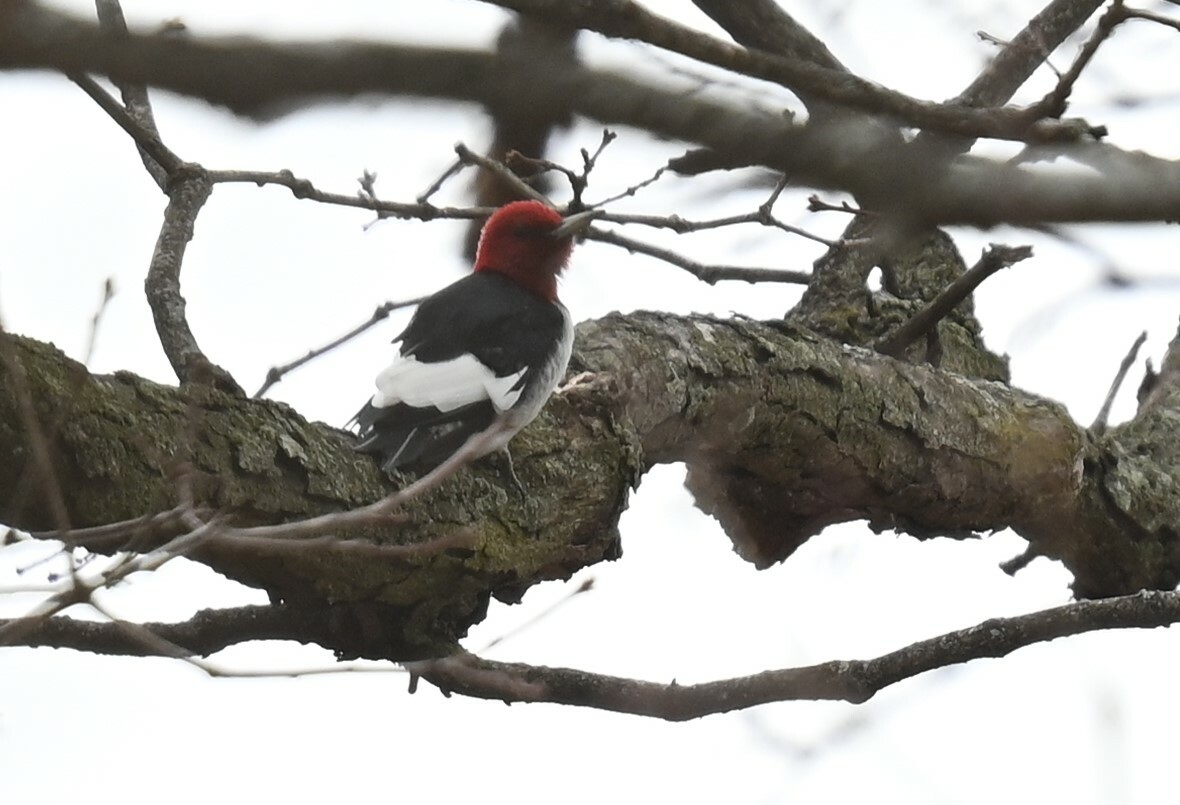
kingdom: Animalia
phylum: Chordata
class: Aves
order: Piciformes
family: Picidae
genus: Melanerpes
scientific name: Melanerpes erythrocephalus
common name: Red-headed woodpecker
